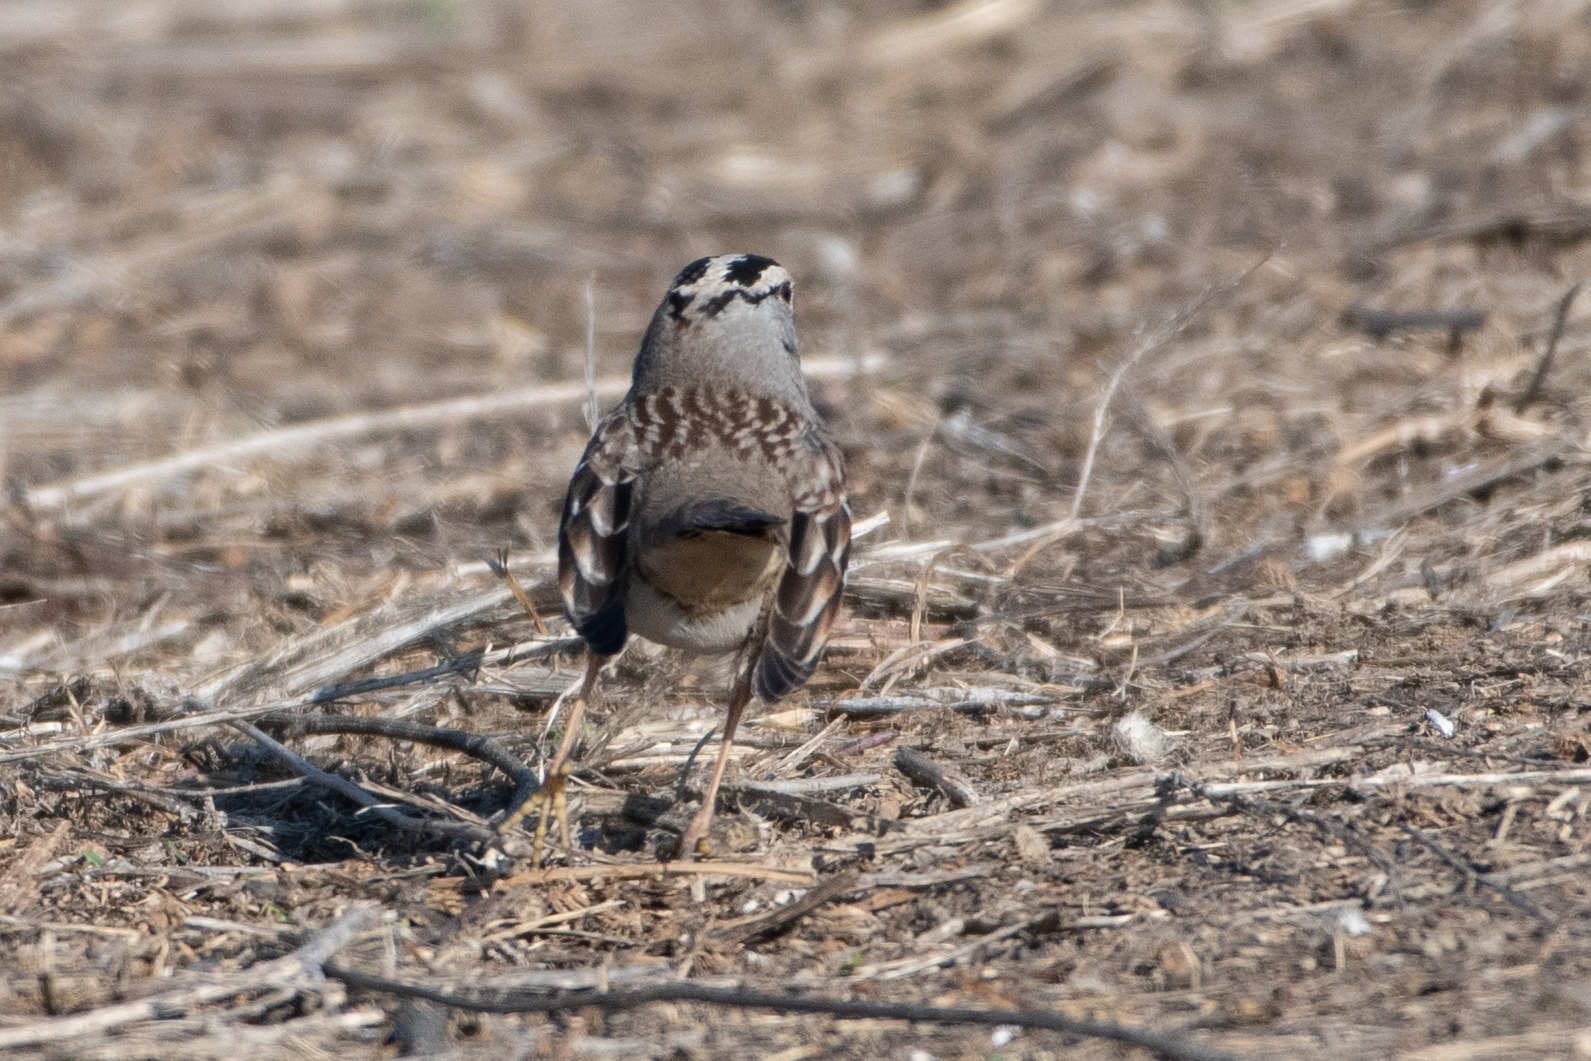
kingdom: Animalia
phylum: Chordata
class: Aves
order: Passeriformes
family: Passerellidae
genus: Zonotrichia
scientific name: Zonotrichia leucophrys
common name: White-crowned sparrow
